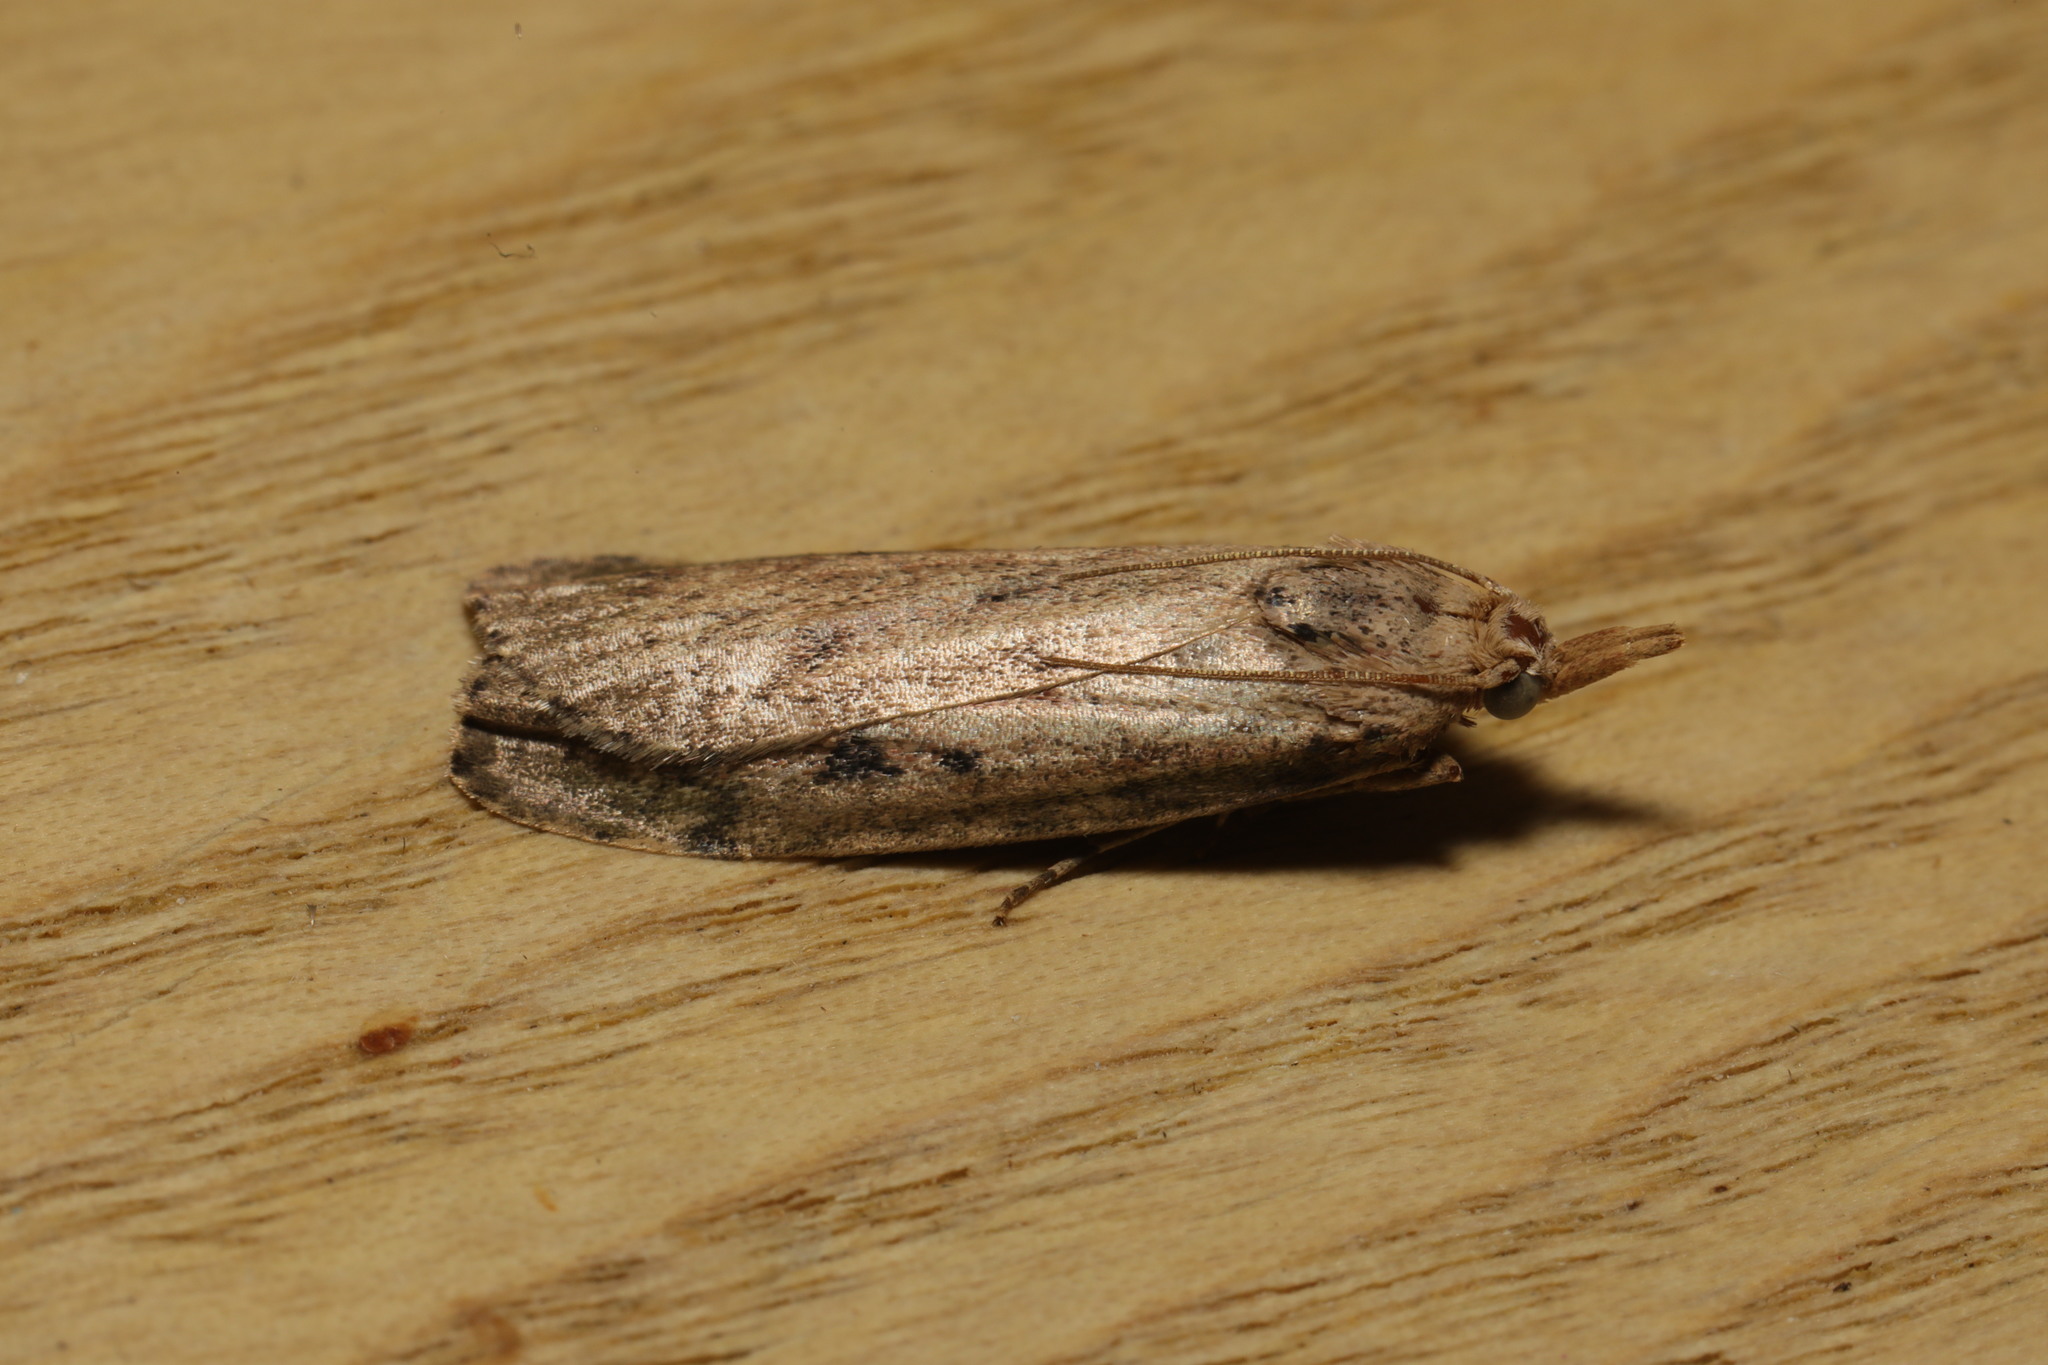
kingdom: Animalia
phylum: Arthropoda
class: Insecta
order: Lepidoptera
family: Pyralidae
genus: Aphomia
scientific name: Aphomia sociella
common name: Bee moth
